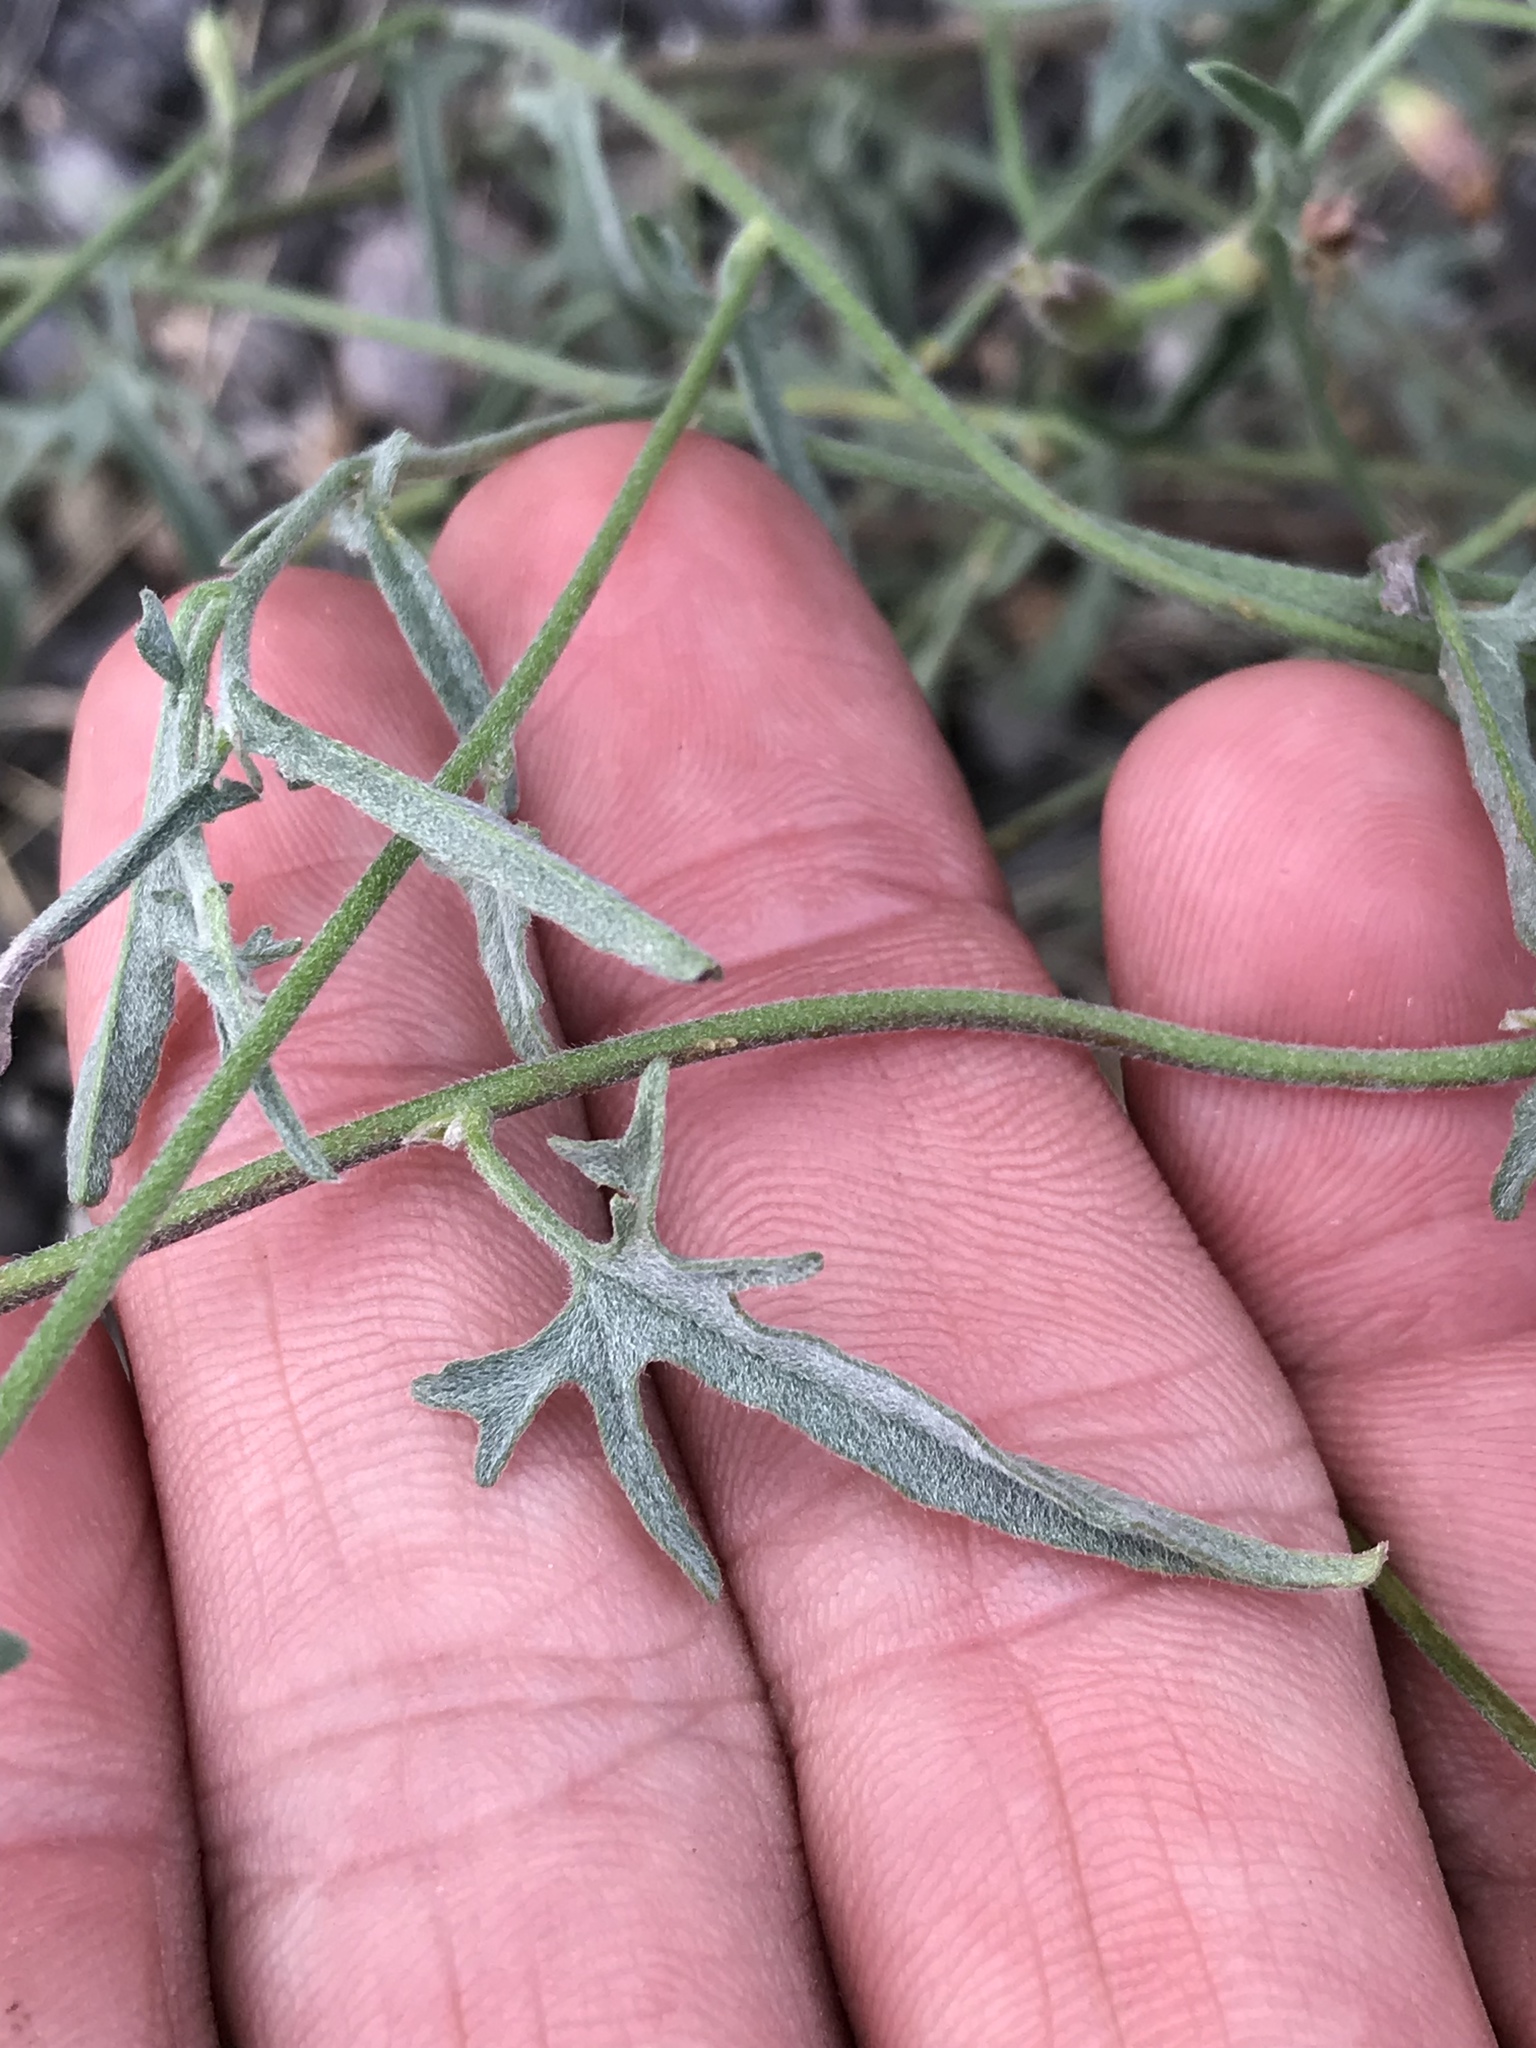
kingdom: Plantae
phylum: Tracheophyta
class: Magnoliopsida
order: Solanales
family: Convolvulaceae
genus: Convolvulus
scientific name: Convolvulus equitans
